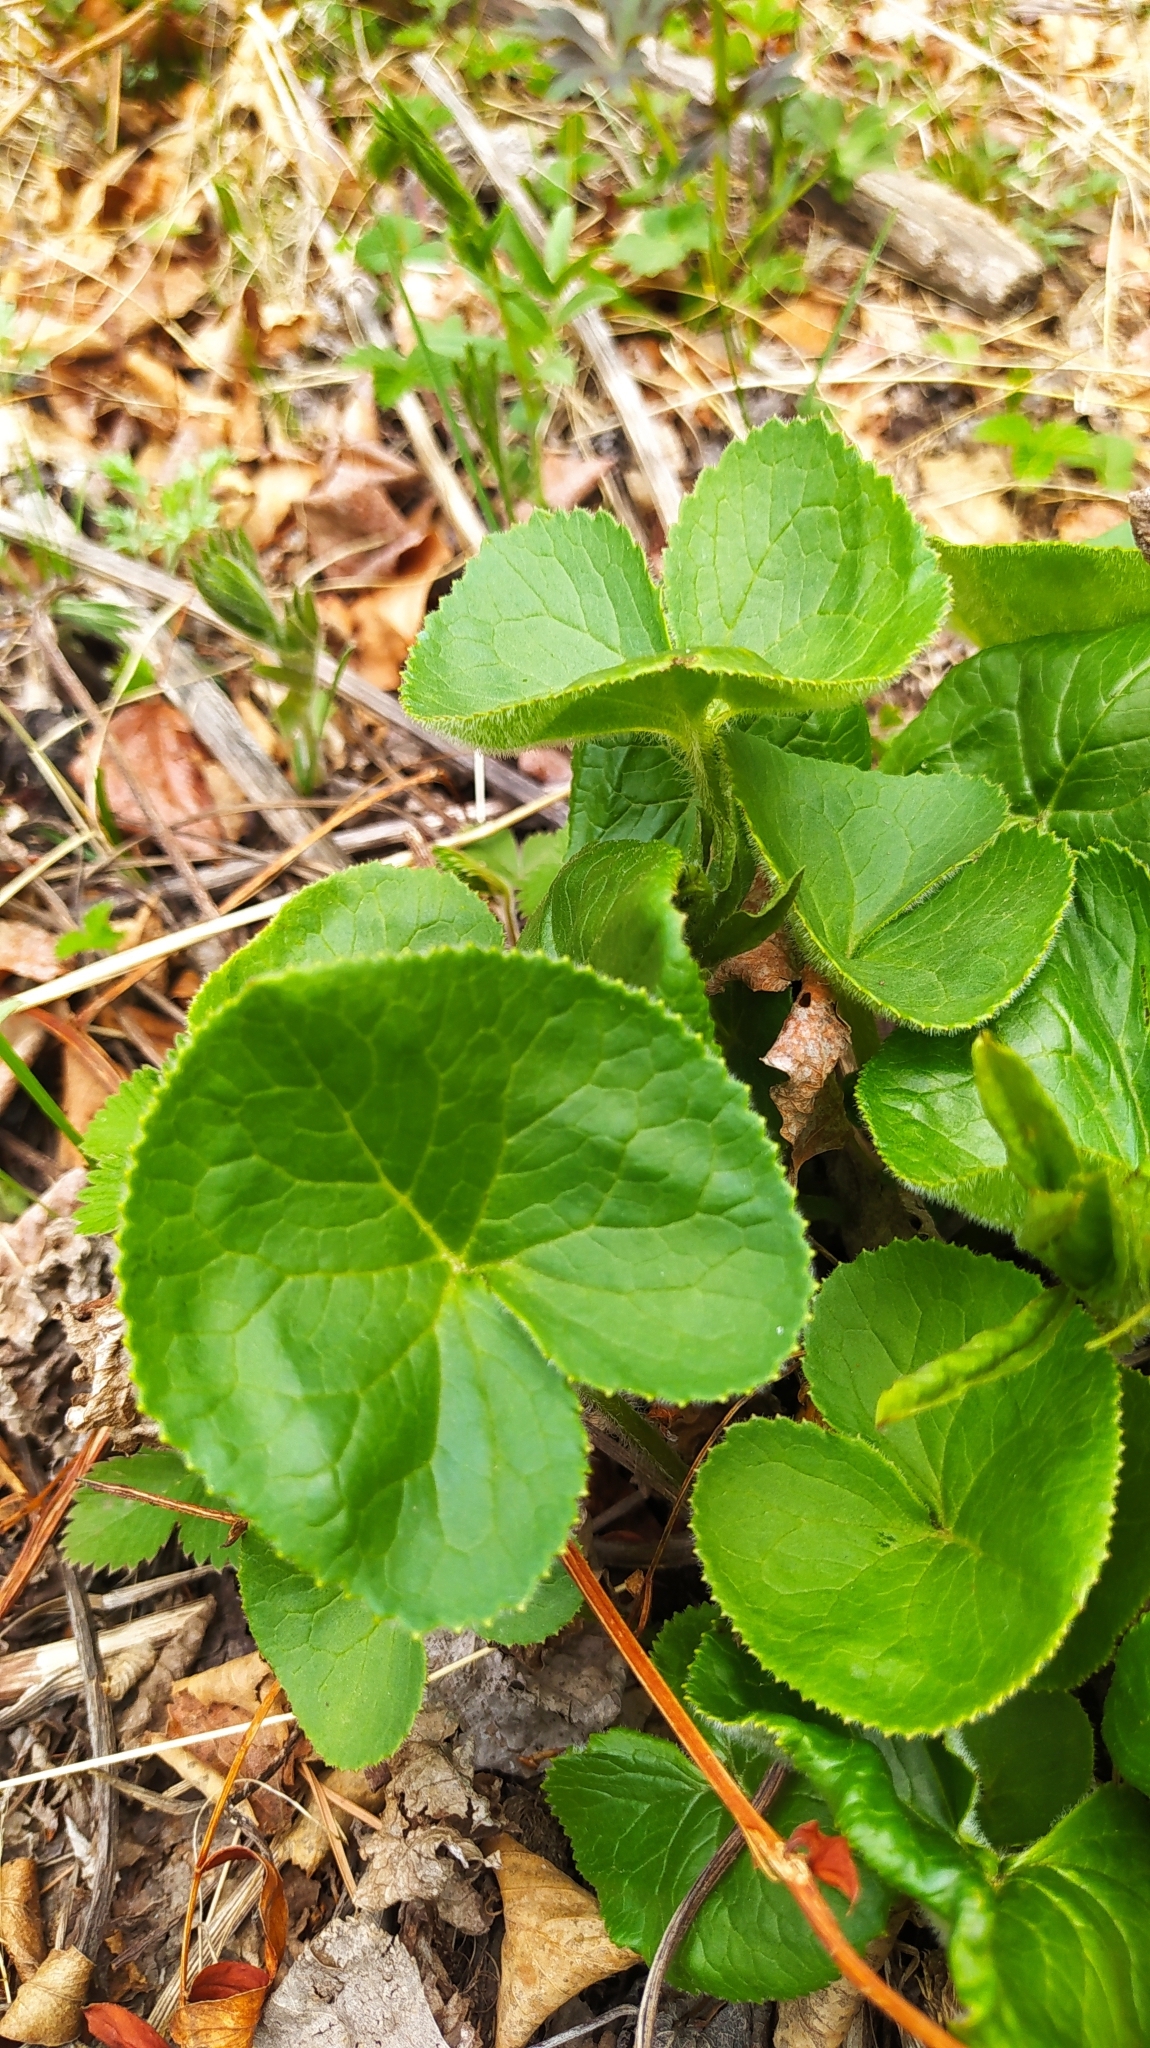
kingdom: Plantae
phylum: Tracheophyta
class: Magnoliopsida
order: Asterales
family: Asteraceae
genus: Ligularia
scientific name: Ligularia fischeri
